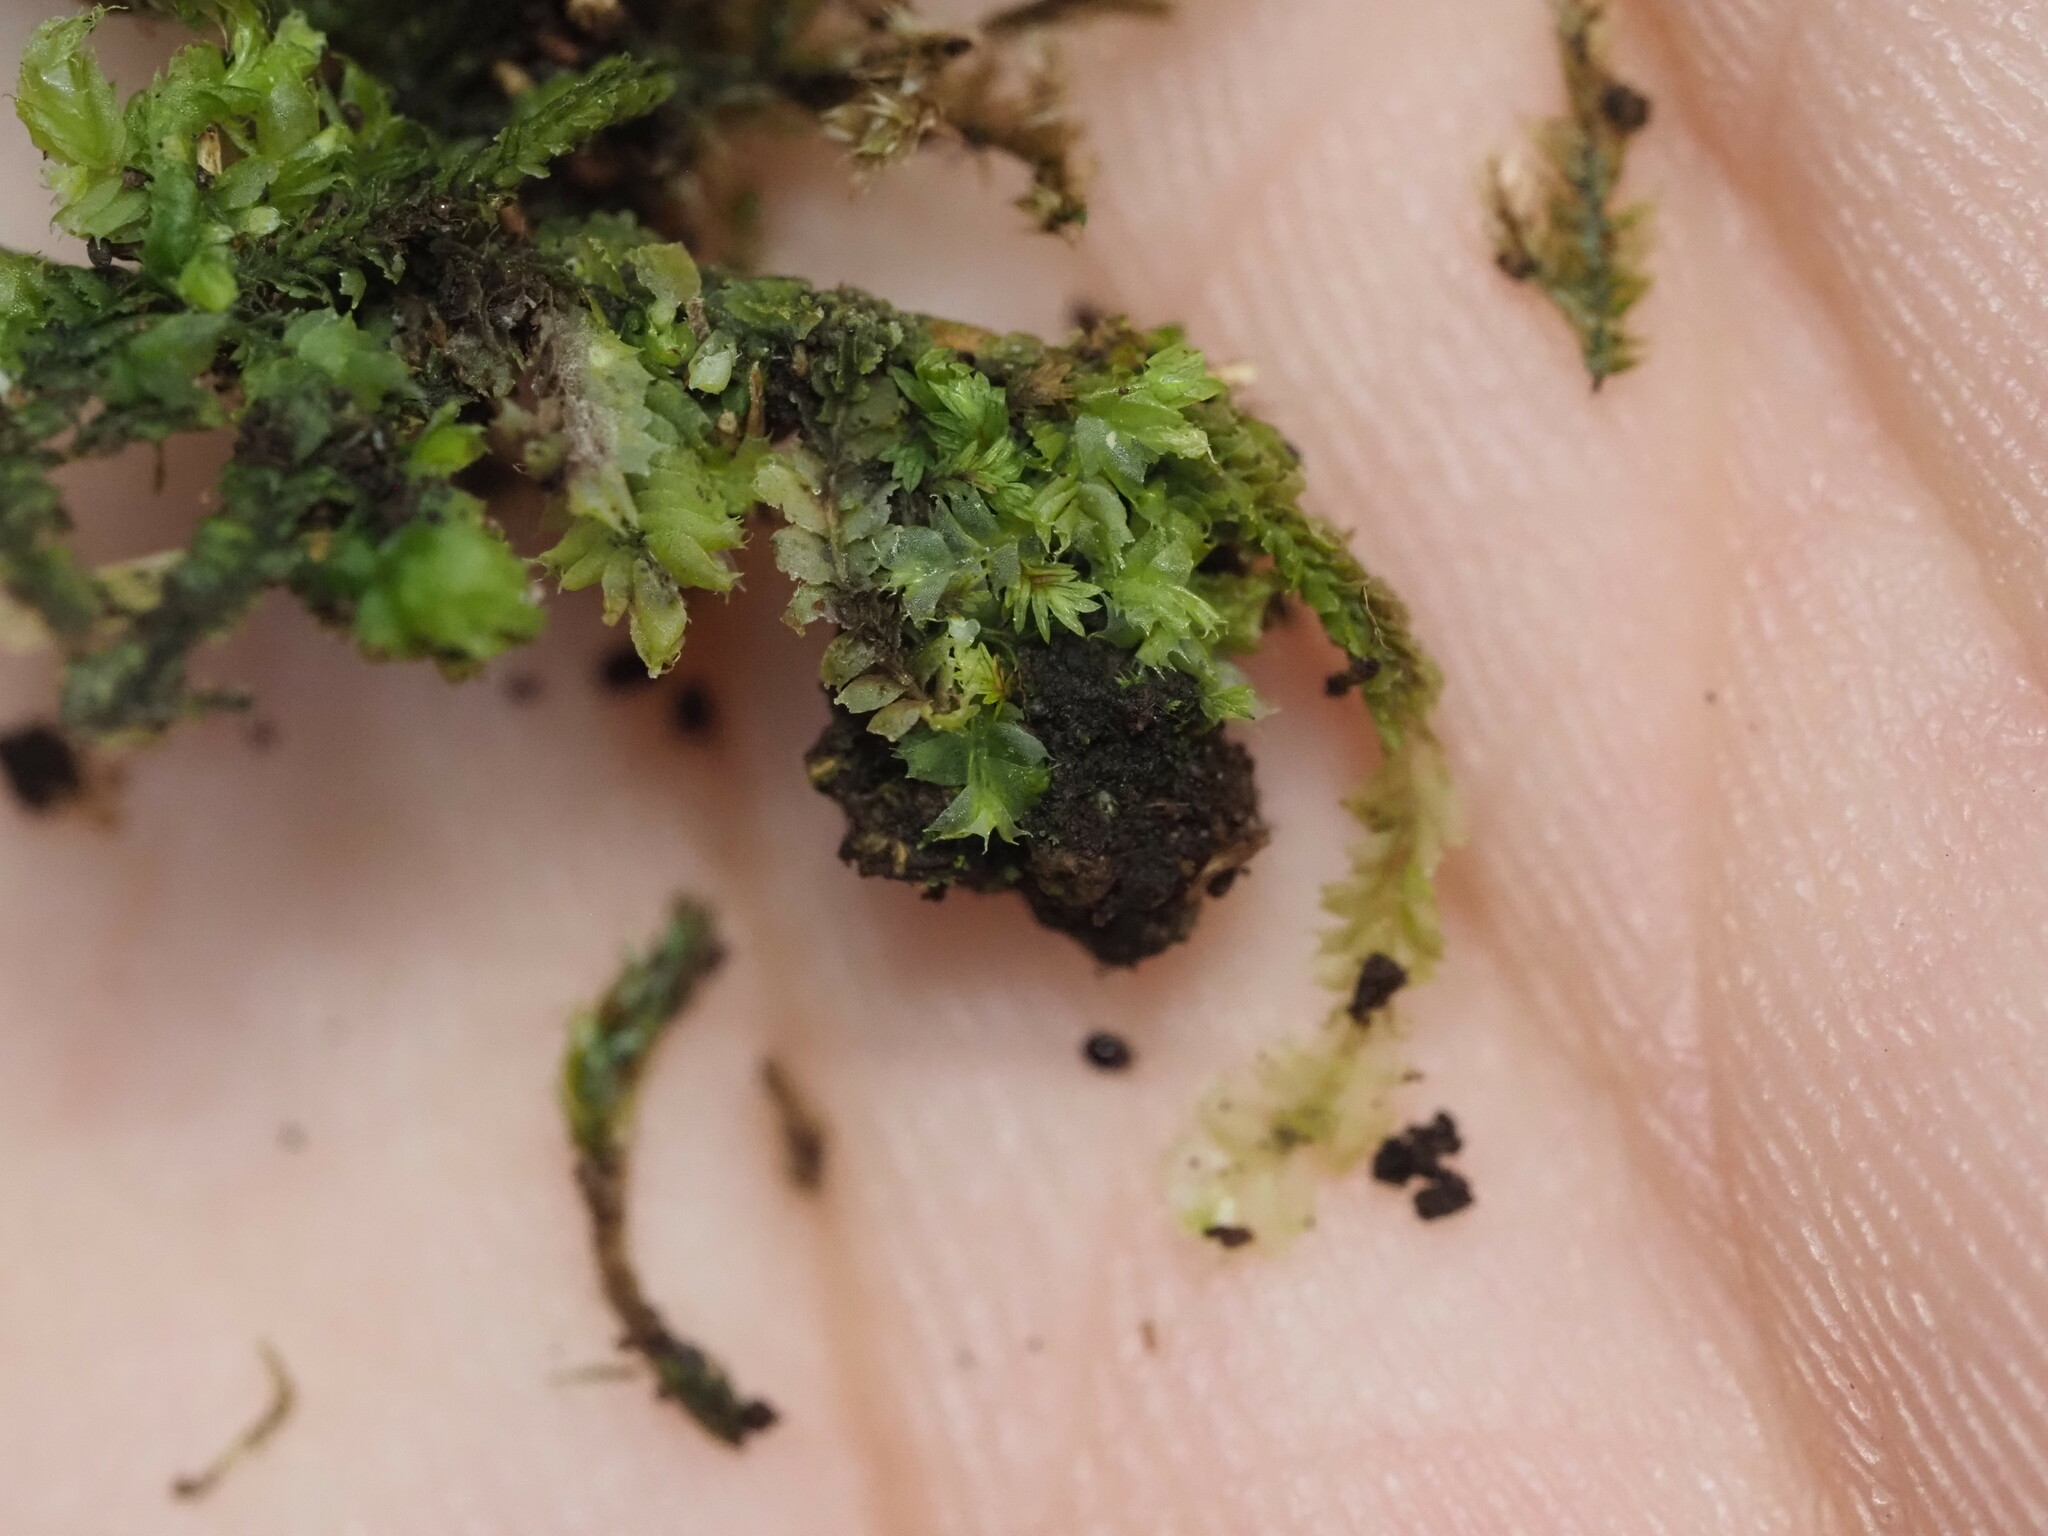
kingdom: Plantae
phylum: Marchantiophyta
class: Jungermanniopsida
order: Jungermanniales
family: Lophocoleaceae
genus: Lophocolea
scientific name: Lophocolea bicuspidata
